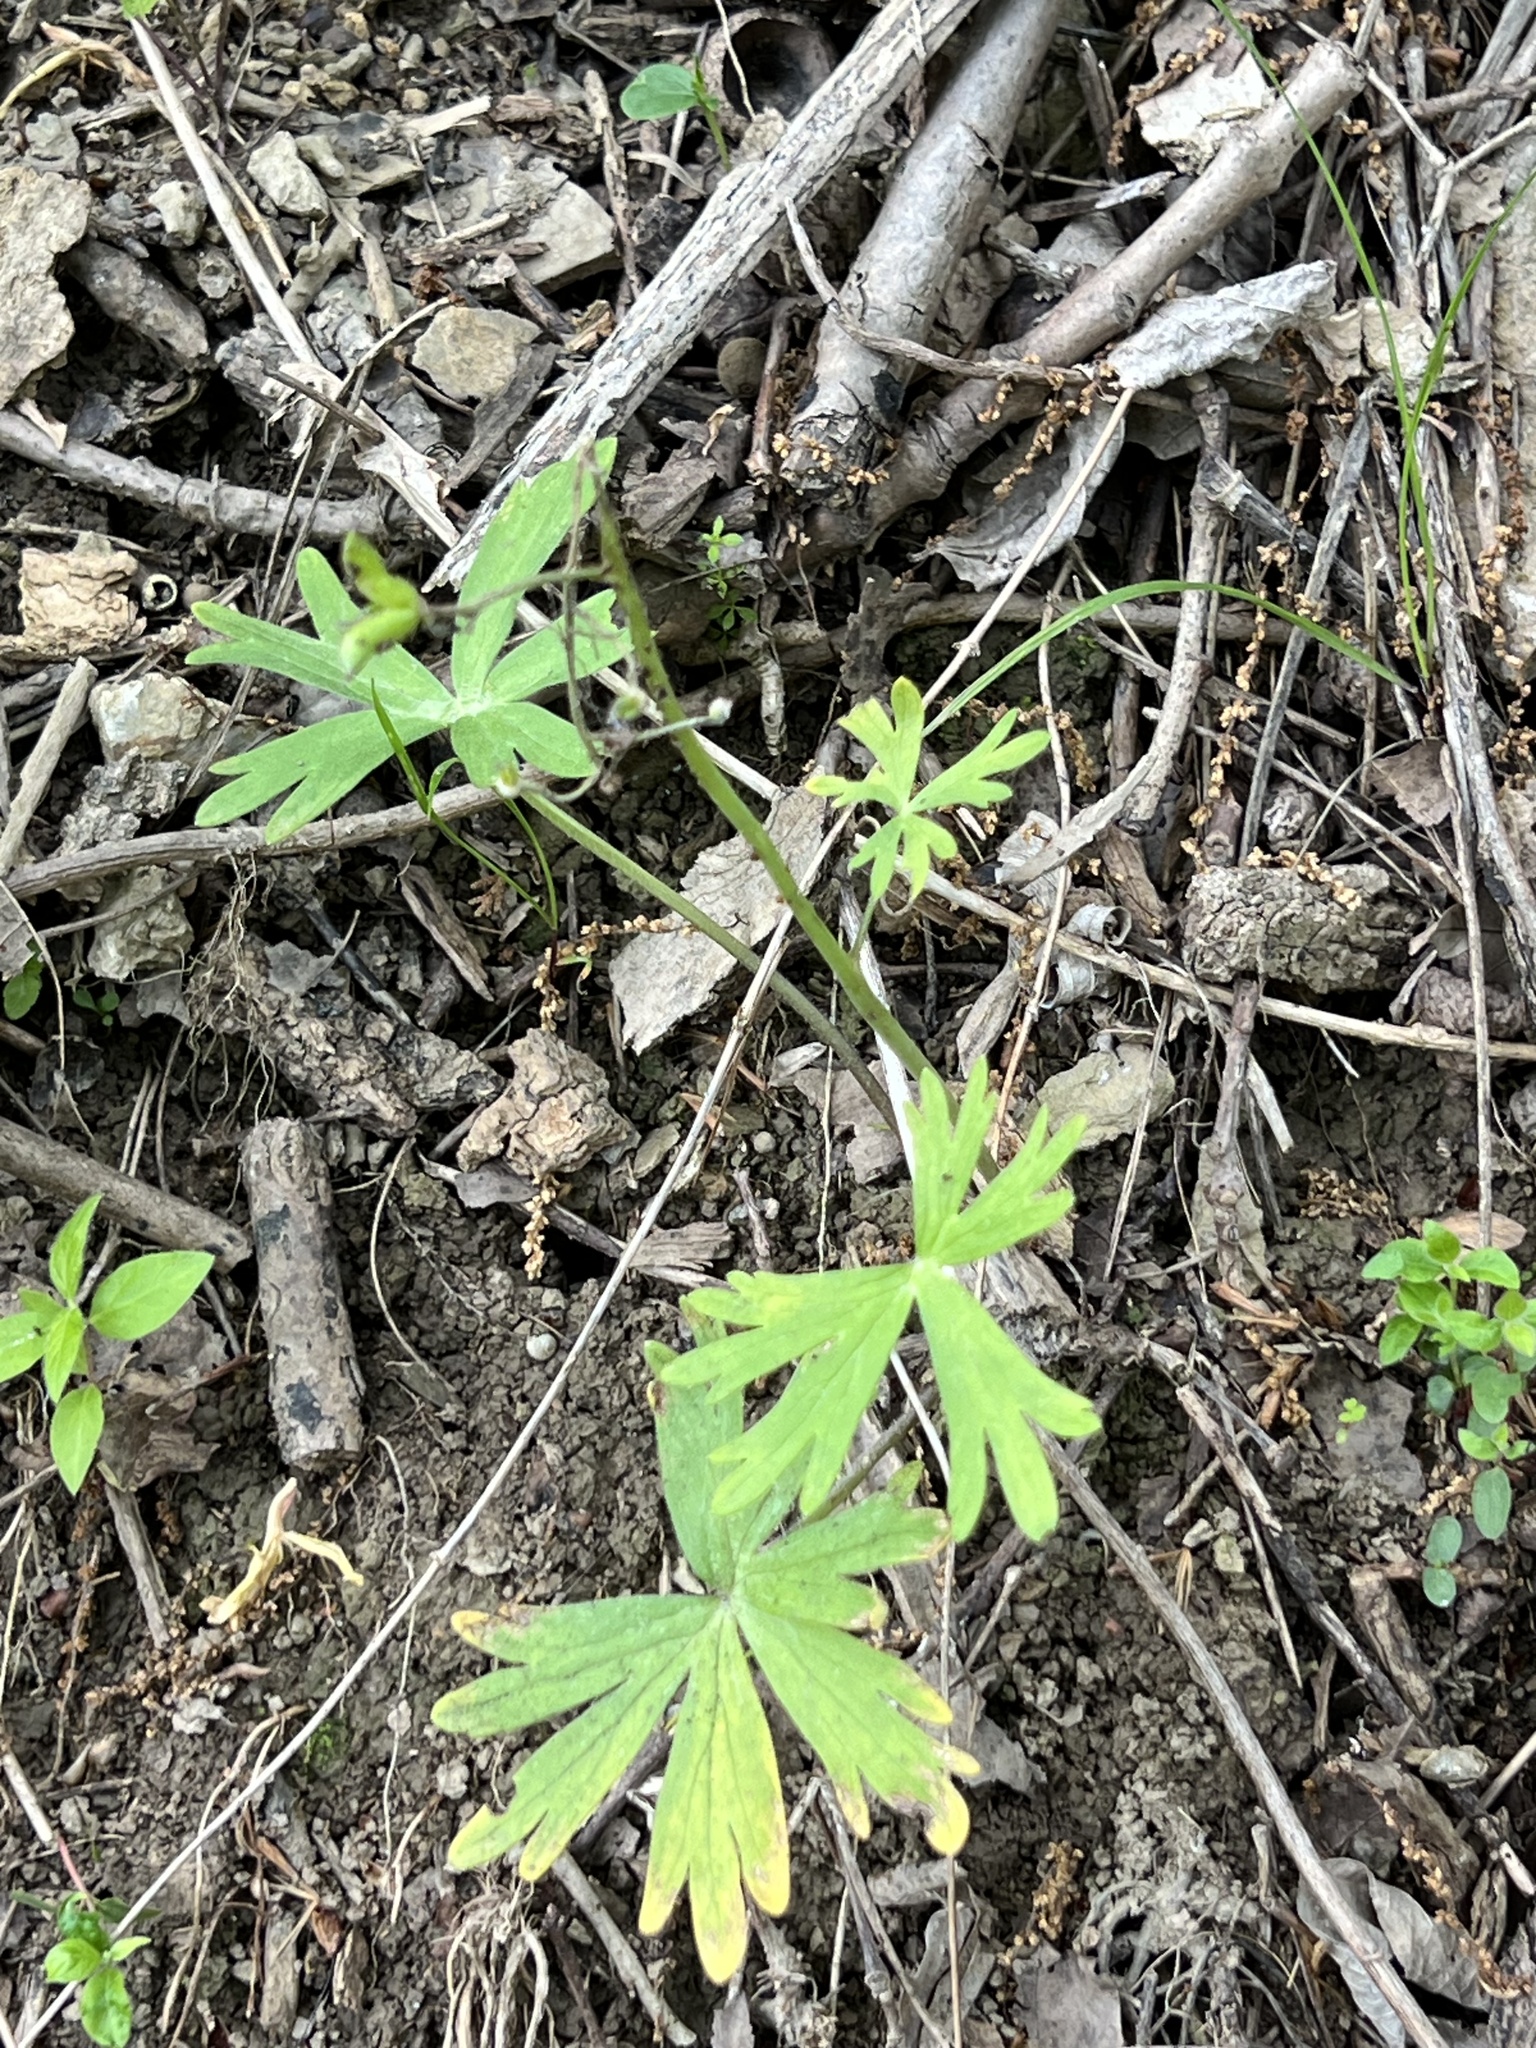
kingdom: Plantae
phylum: Tracheophyta
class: Magnoliopsida
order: Ranunculales
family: Ranunculaceae
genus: Delphinium
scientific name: Delphinium tricorne
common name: Dwarf larkspur
